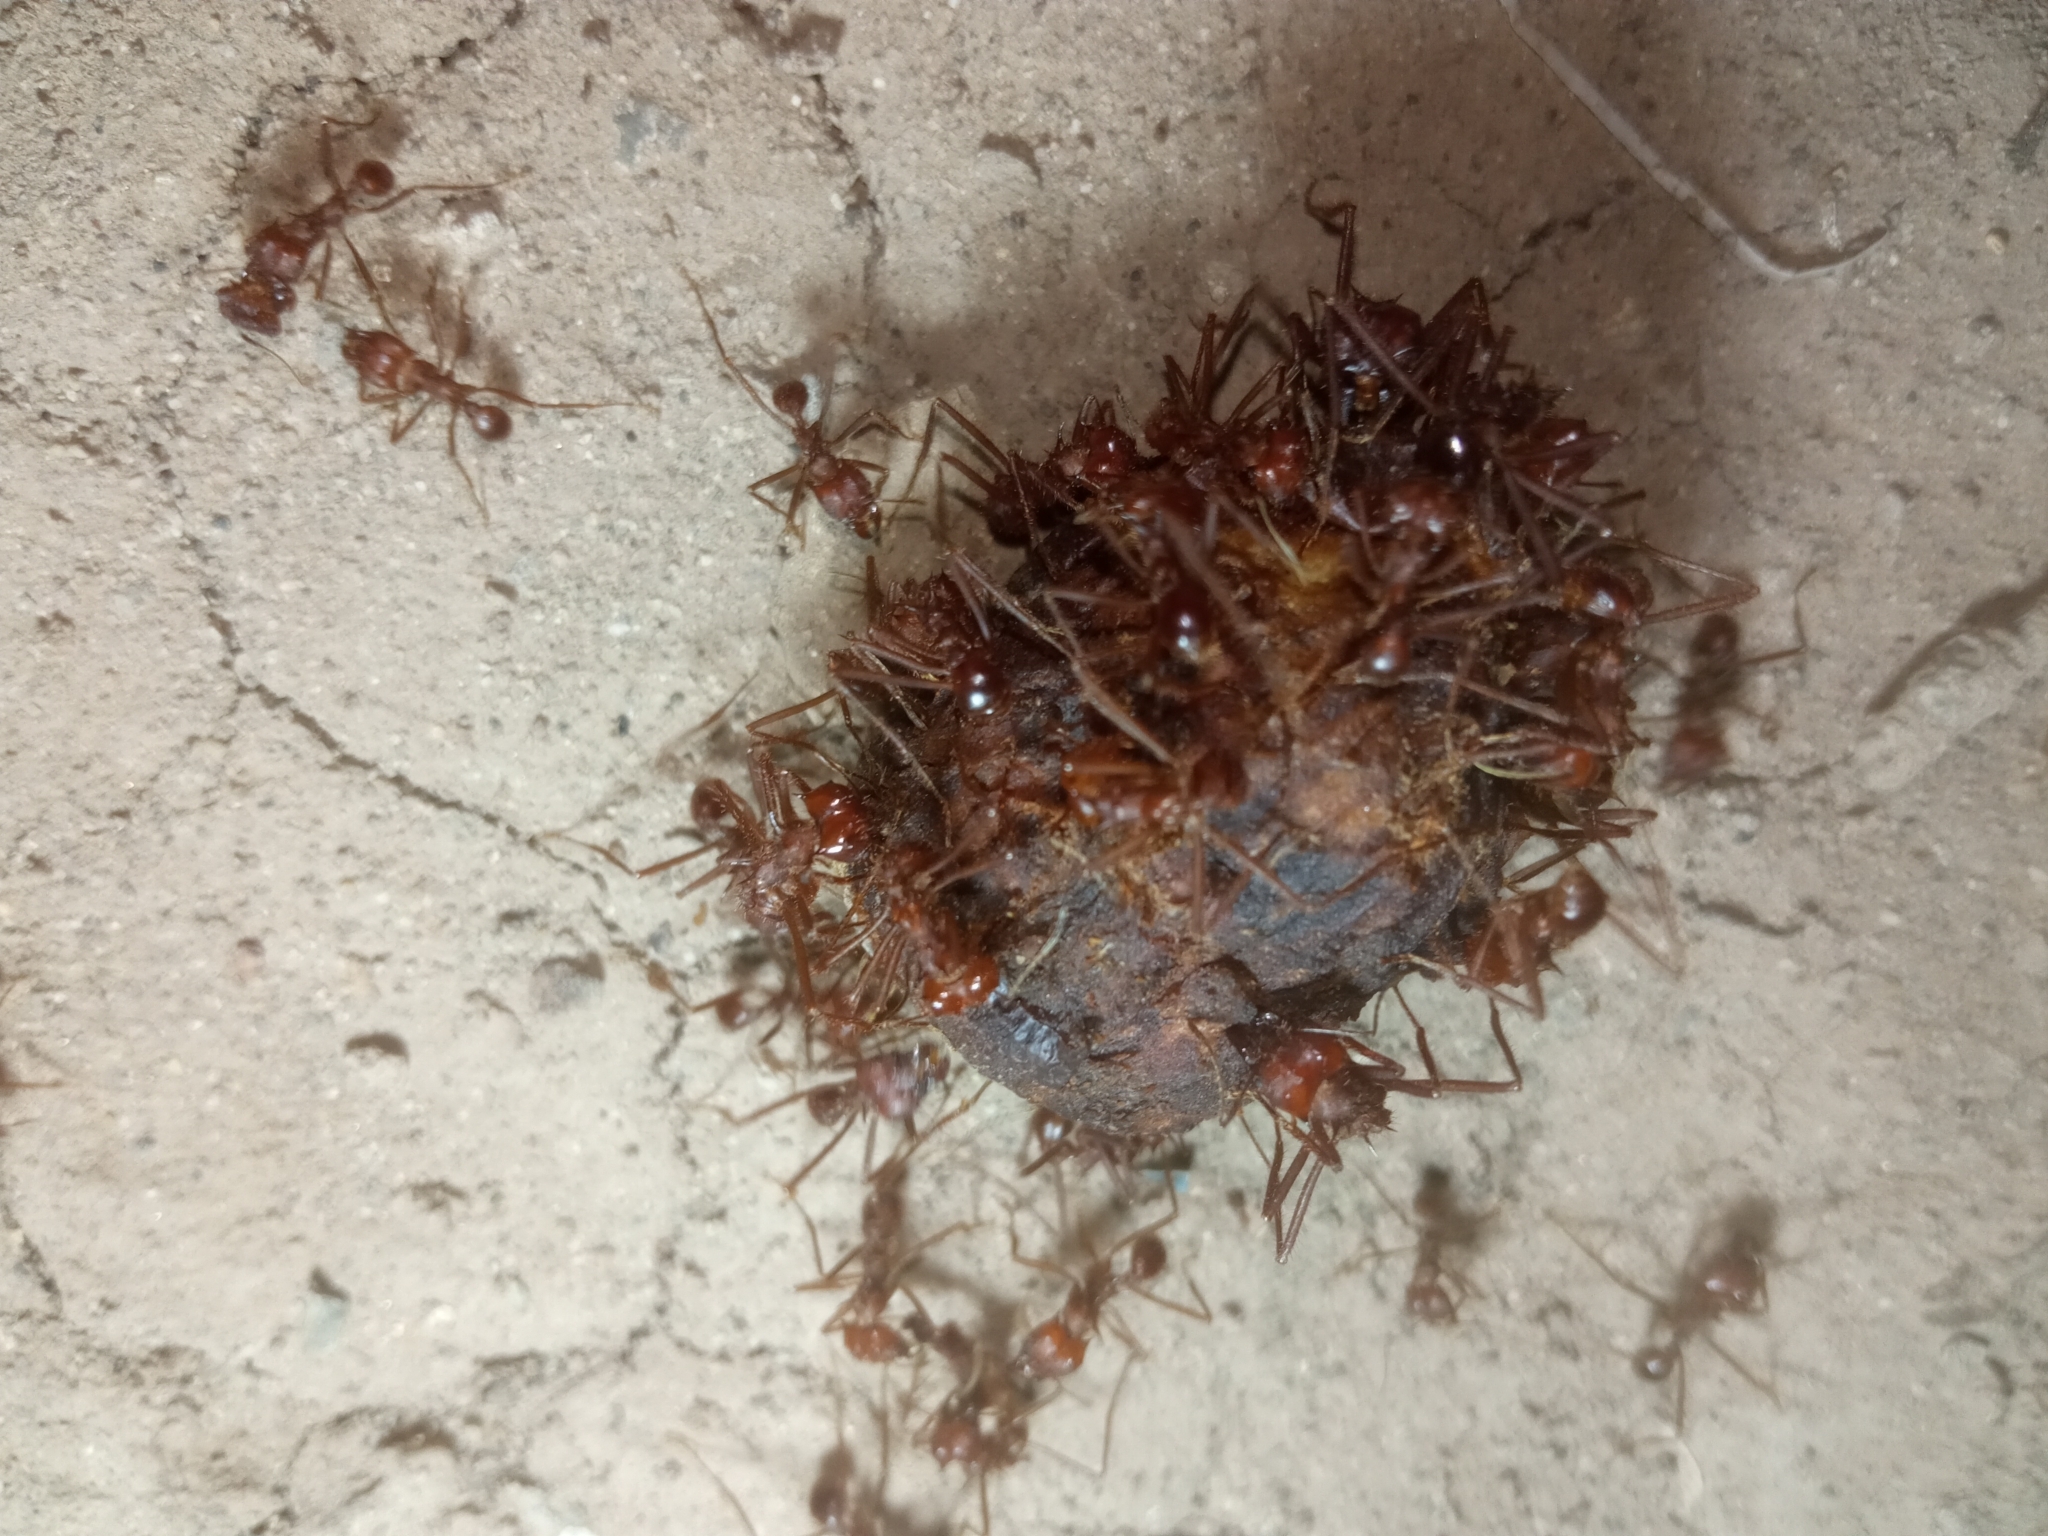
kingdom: Animalia
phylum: Arthropoda
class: Insecta
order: Hymenoptera
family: Formicidae
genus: Atta
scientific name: Atta mexicana
